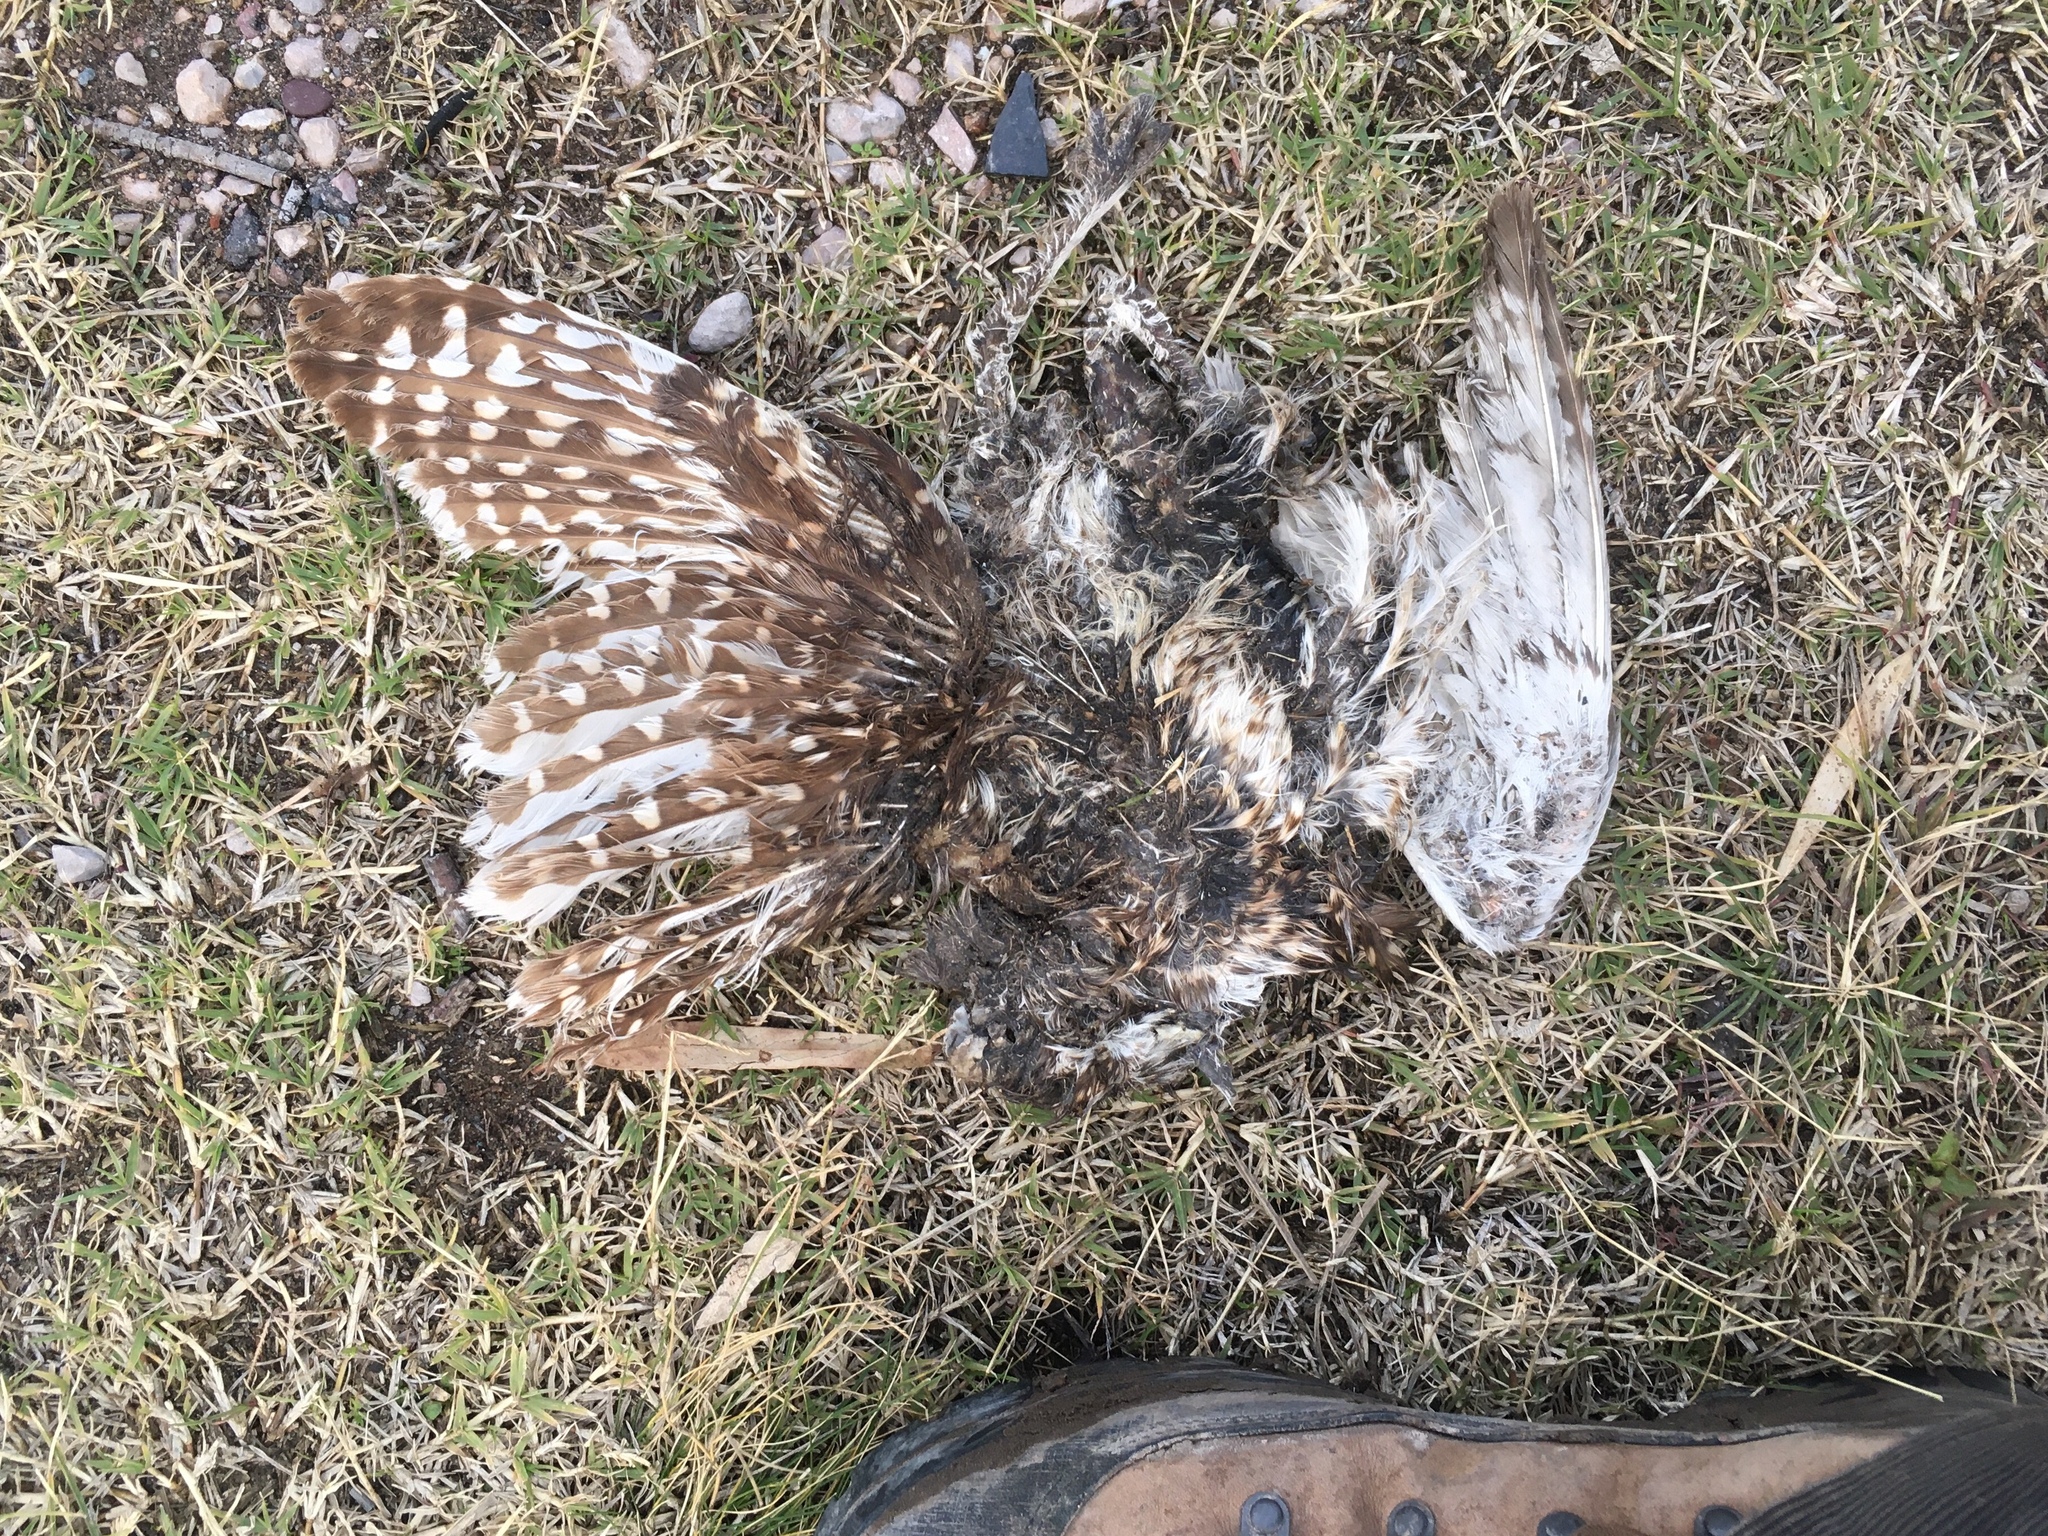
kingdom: Animalia
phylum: Chordata
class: Aves
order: Strigiformes
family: Strigidae
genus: Athene
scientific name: Athene cunicularia
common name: Burrowing owl
